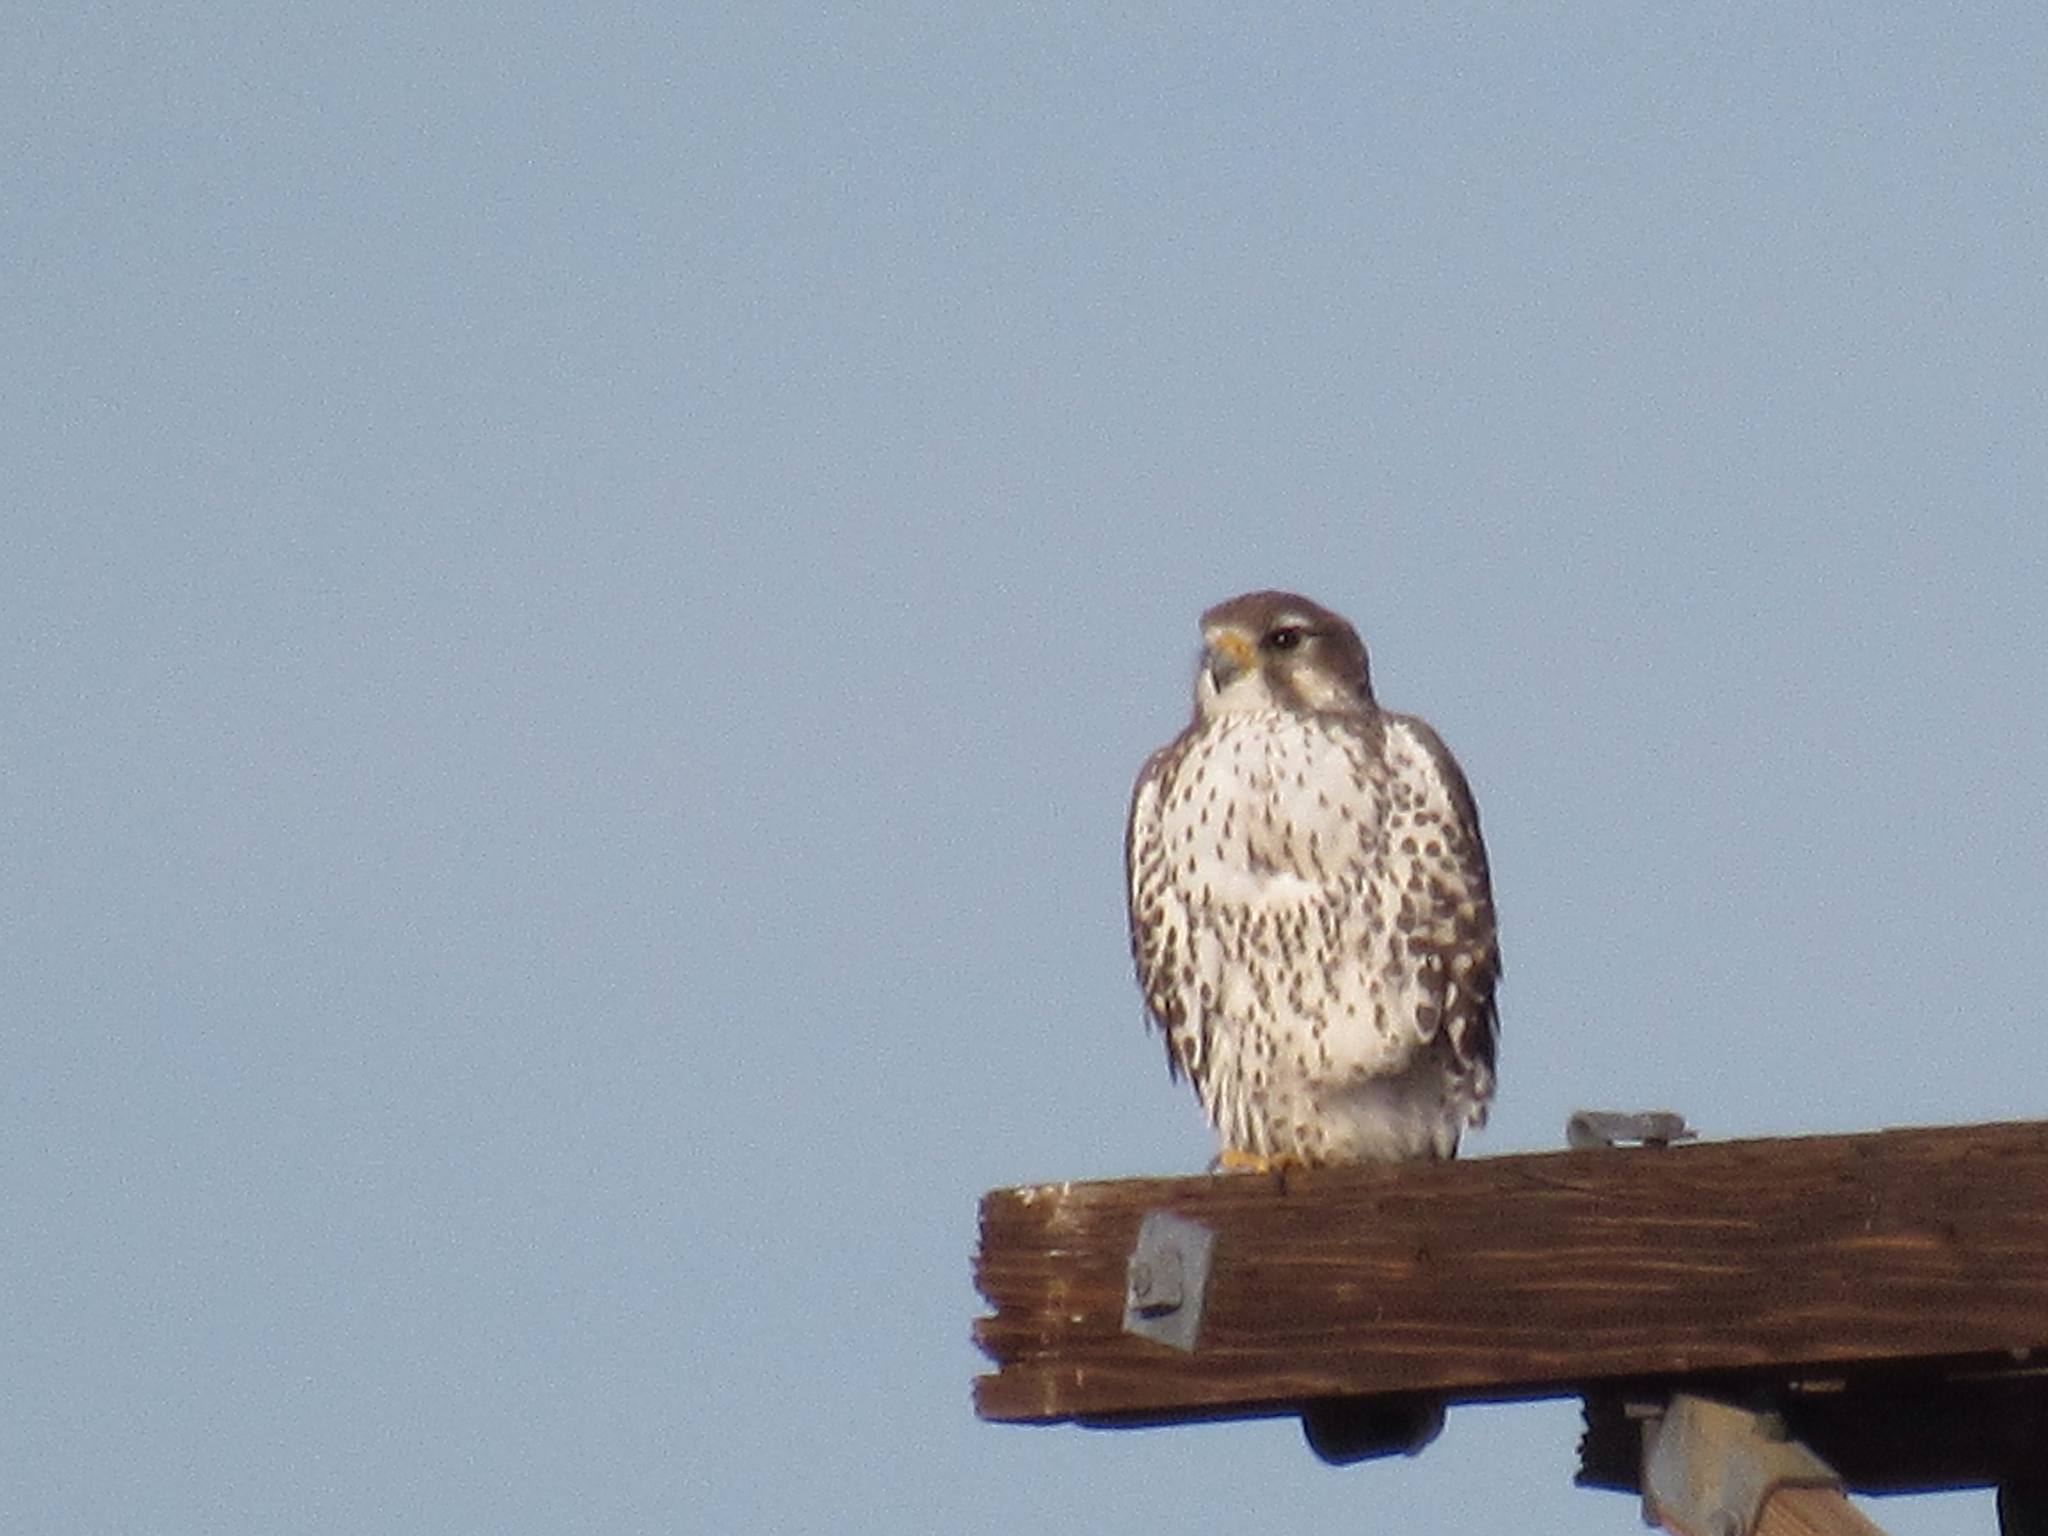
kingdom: Animalia
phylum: Chordata
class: Aves
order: Falconiformes
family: Falconidae
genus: Falco
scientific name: Falco mexicanus
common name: Prairie falcon
